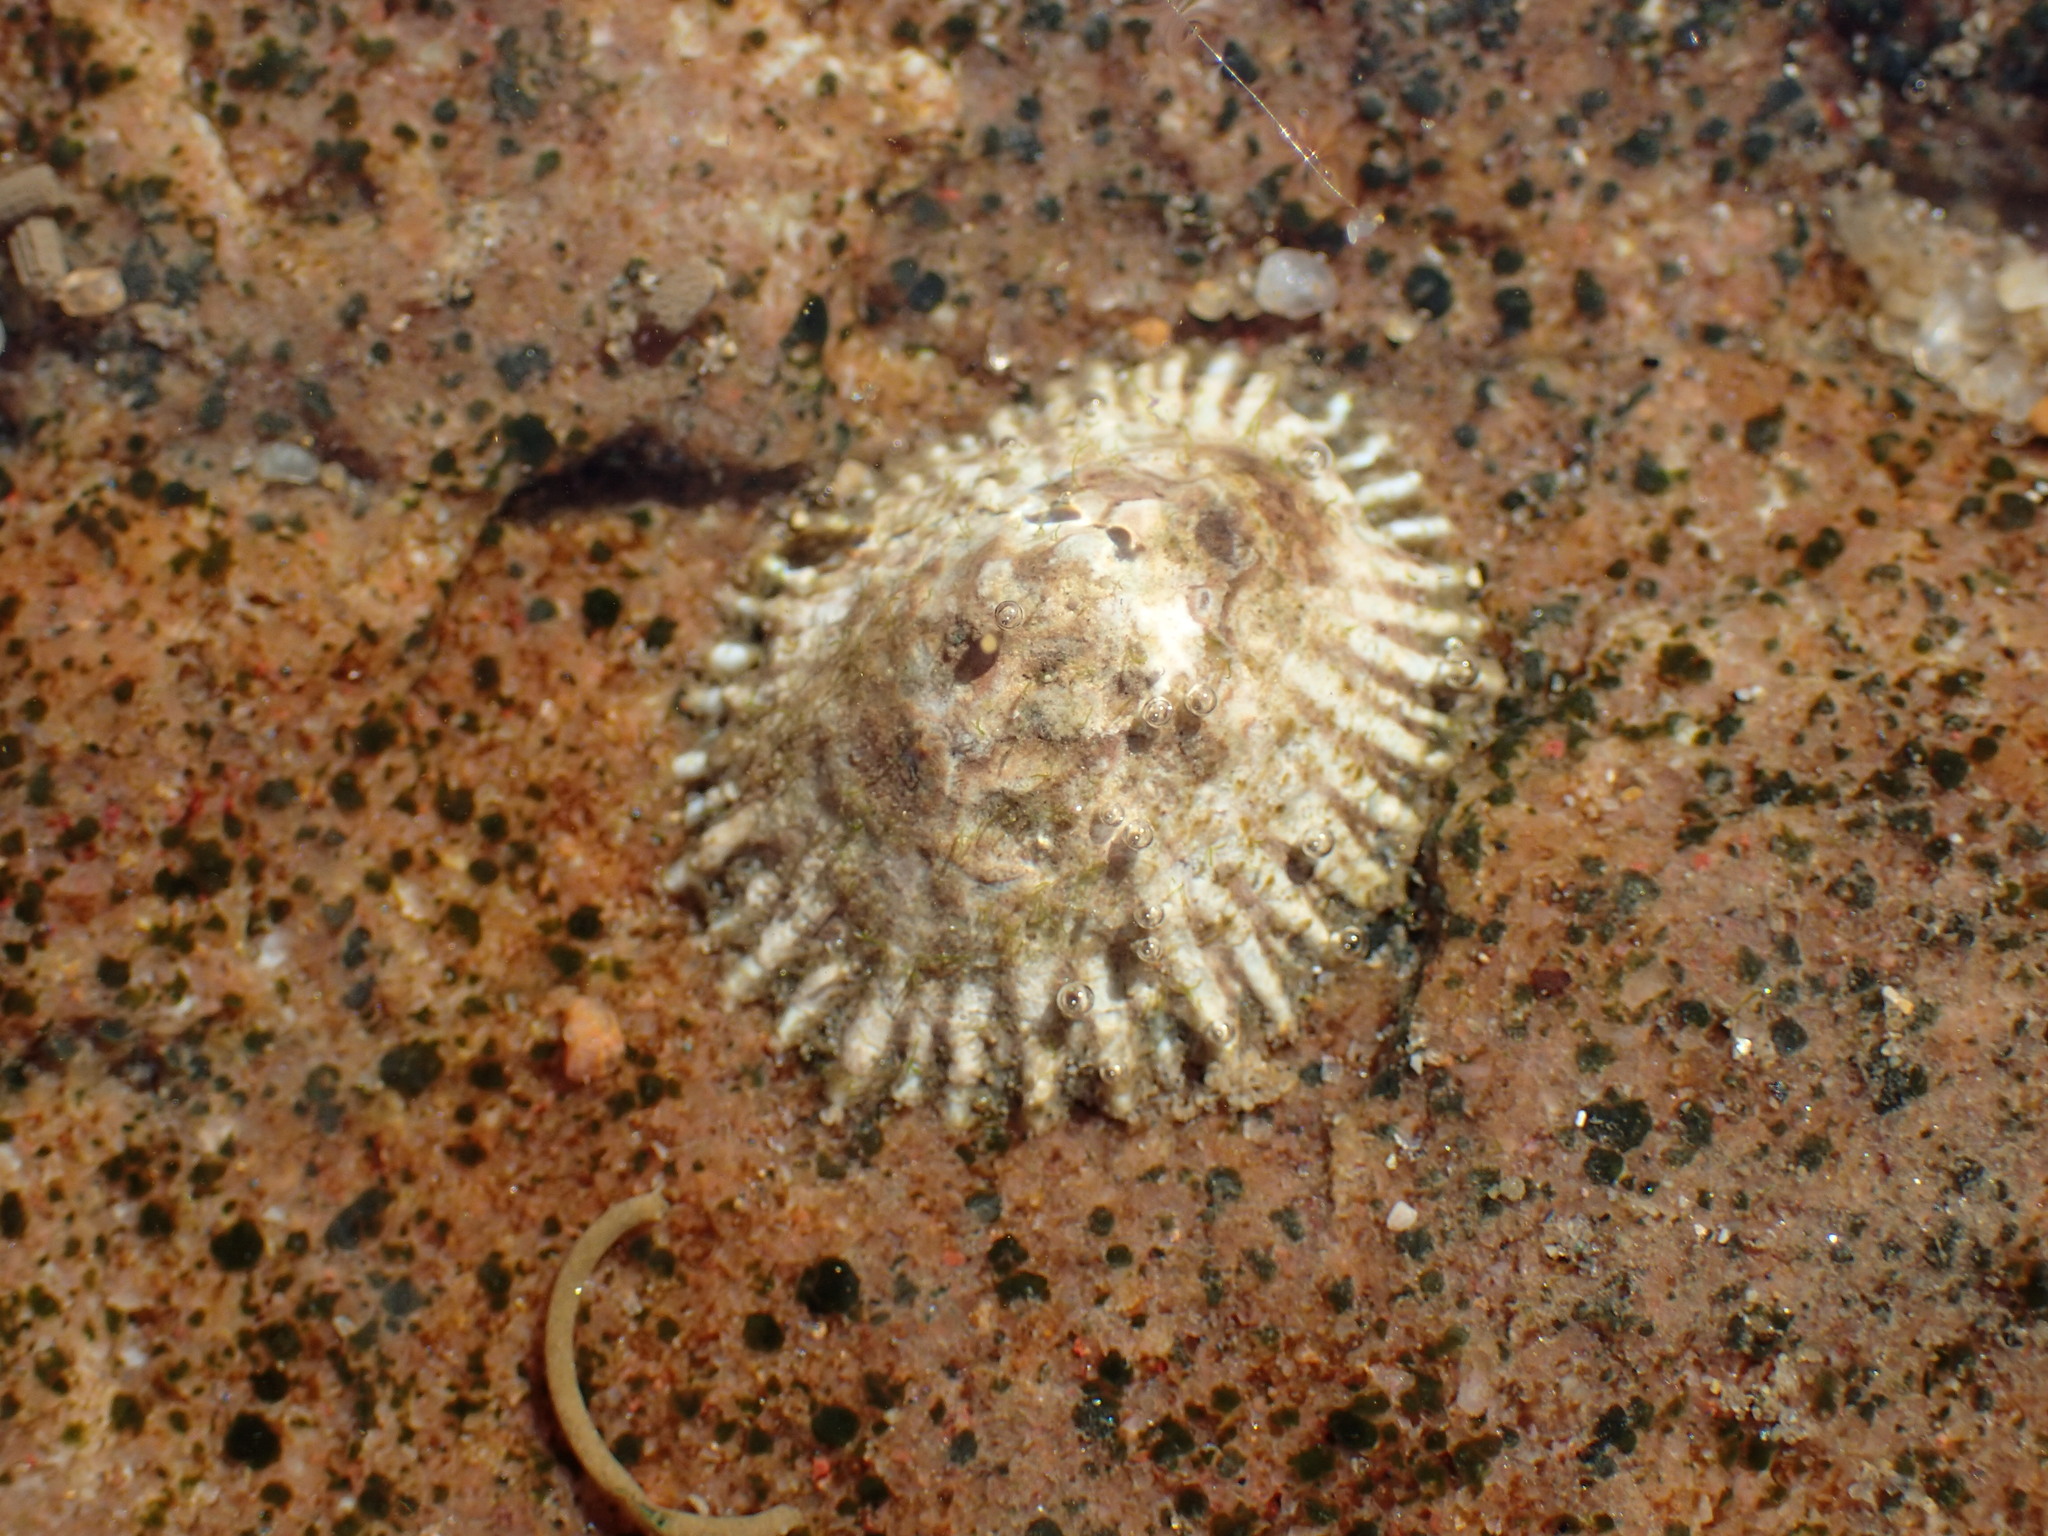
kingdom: Animalia
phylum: Mollusca
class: Gastropoda
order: Siphonariida
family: Siphonariidae
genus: Siphonaria
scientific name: Siphonaria capensis
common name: Cape false limpet
